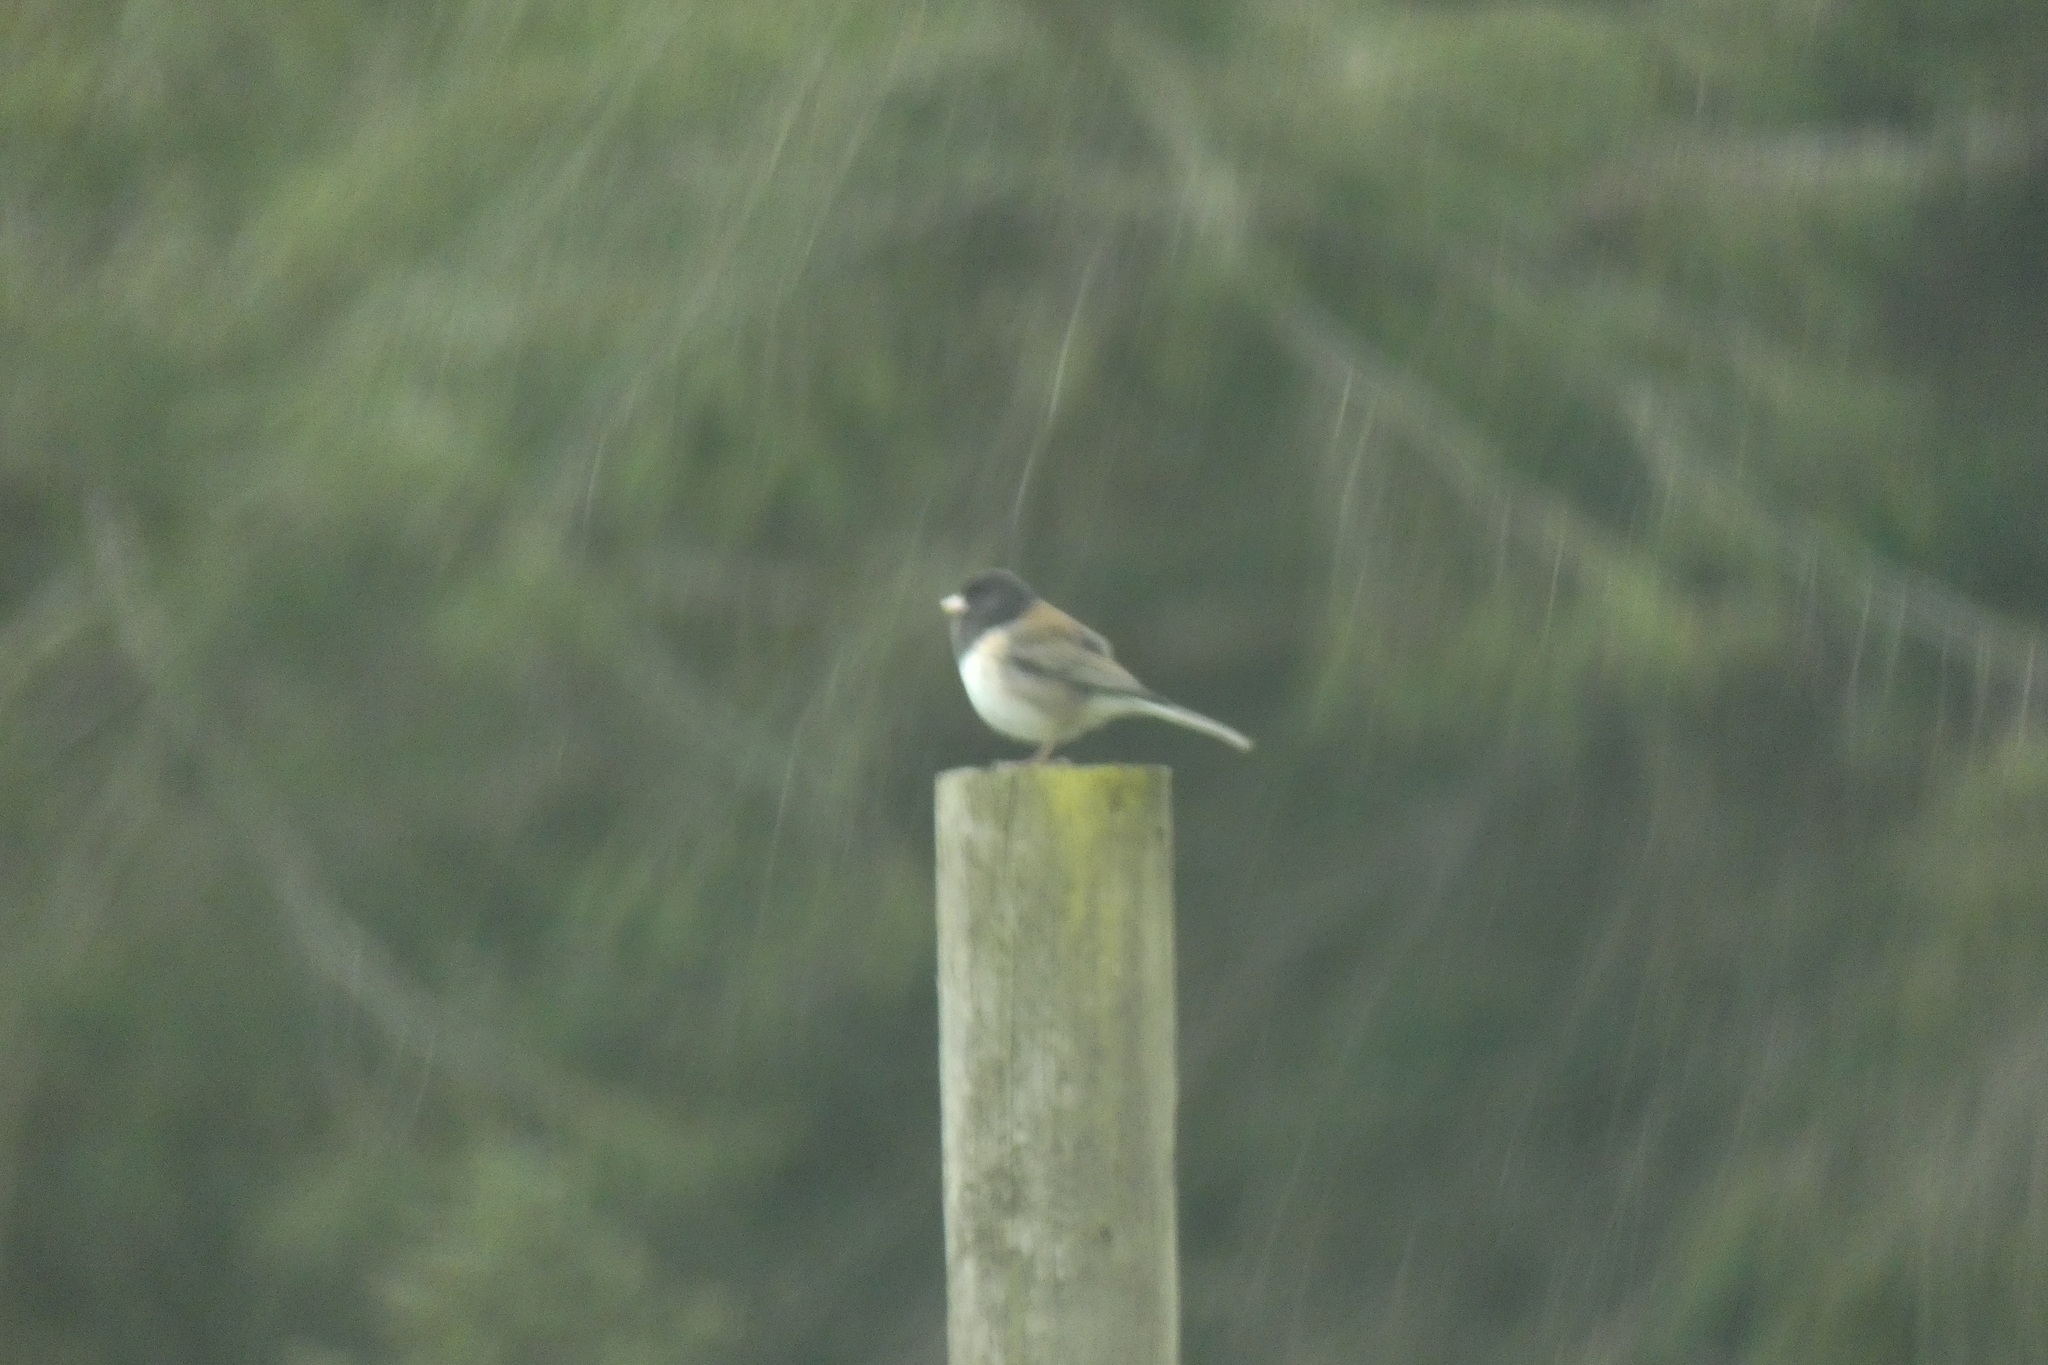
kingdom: Animalia
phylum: Chordata
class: Aves
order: Passeriformes
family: Passerellidae
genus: Junco
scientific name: Junco hyemalis
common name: Dark-eyed junco
